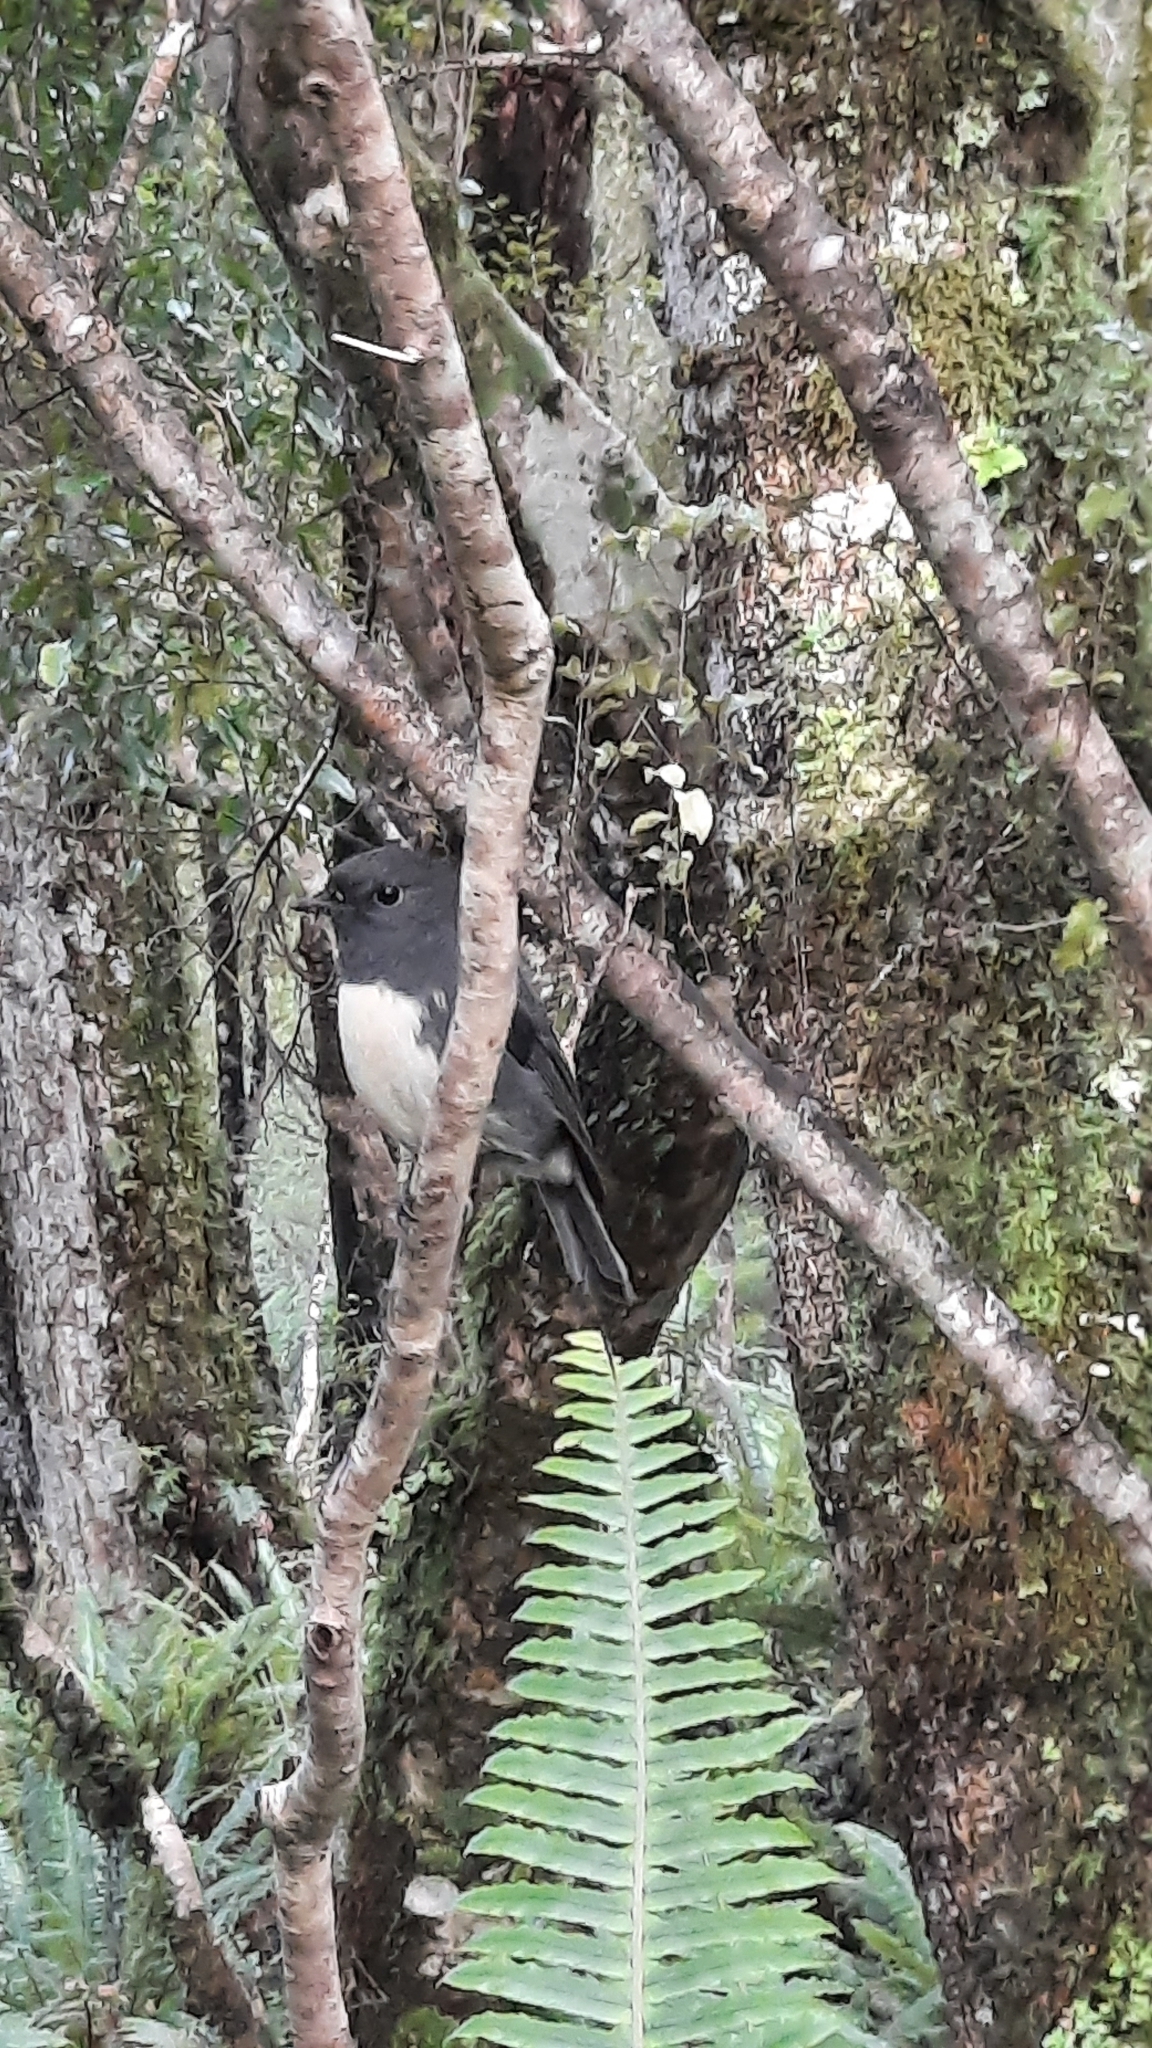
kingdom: Animalia
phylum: Chordata
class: Aves
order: Passeriformes
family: Petroicidae
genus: Petroica
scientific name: Petroica australis
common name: New zealand robin
